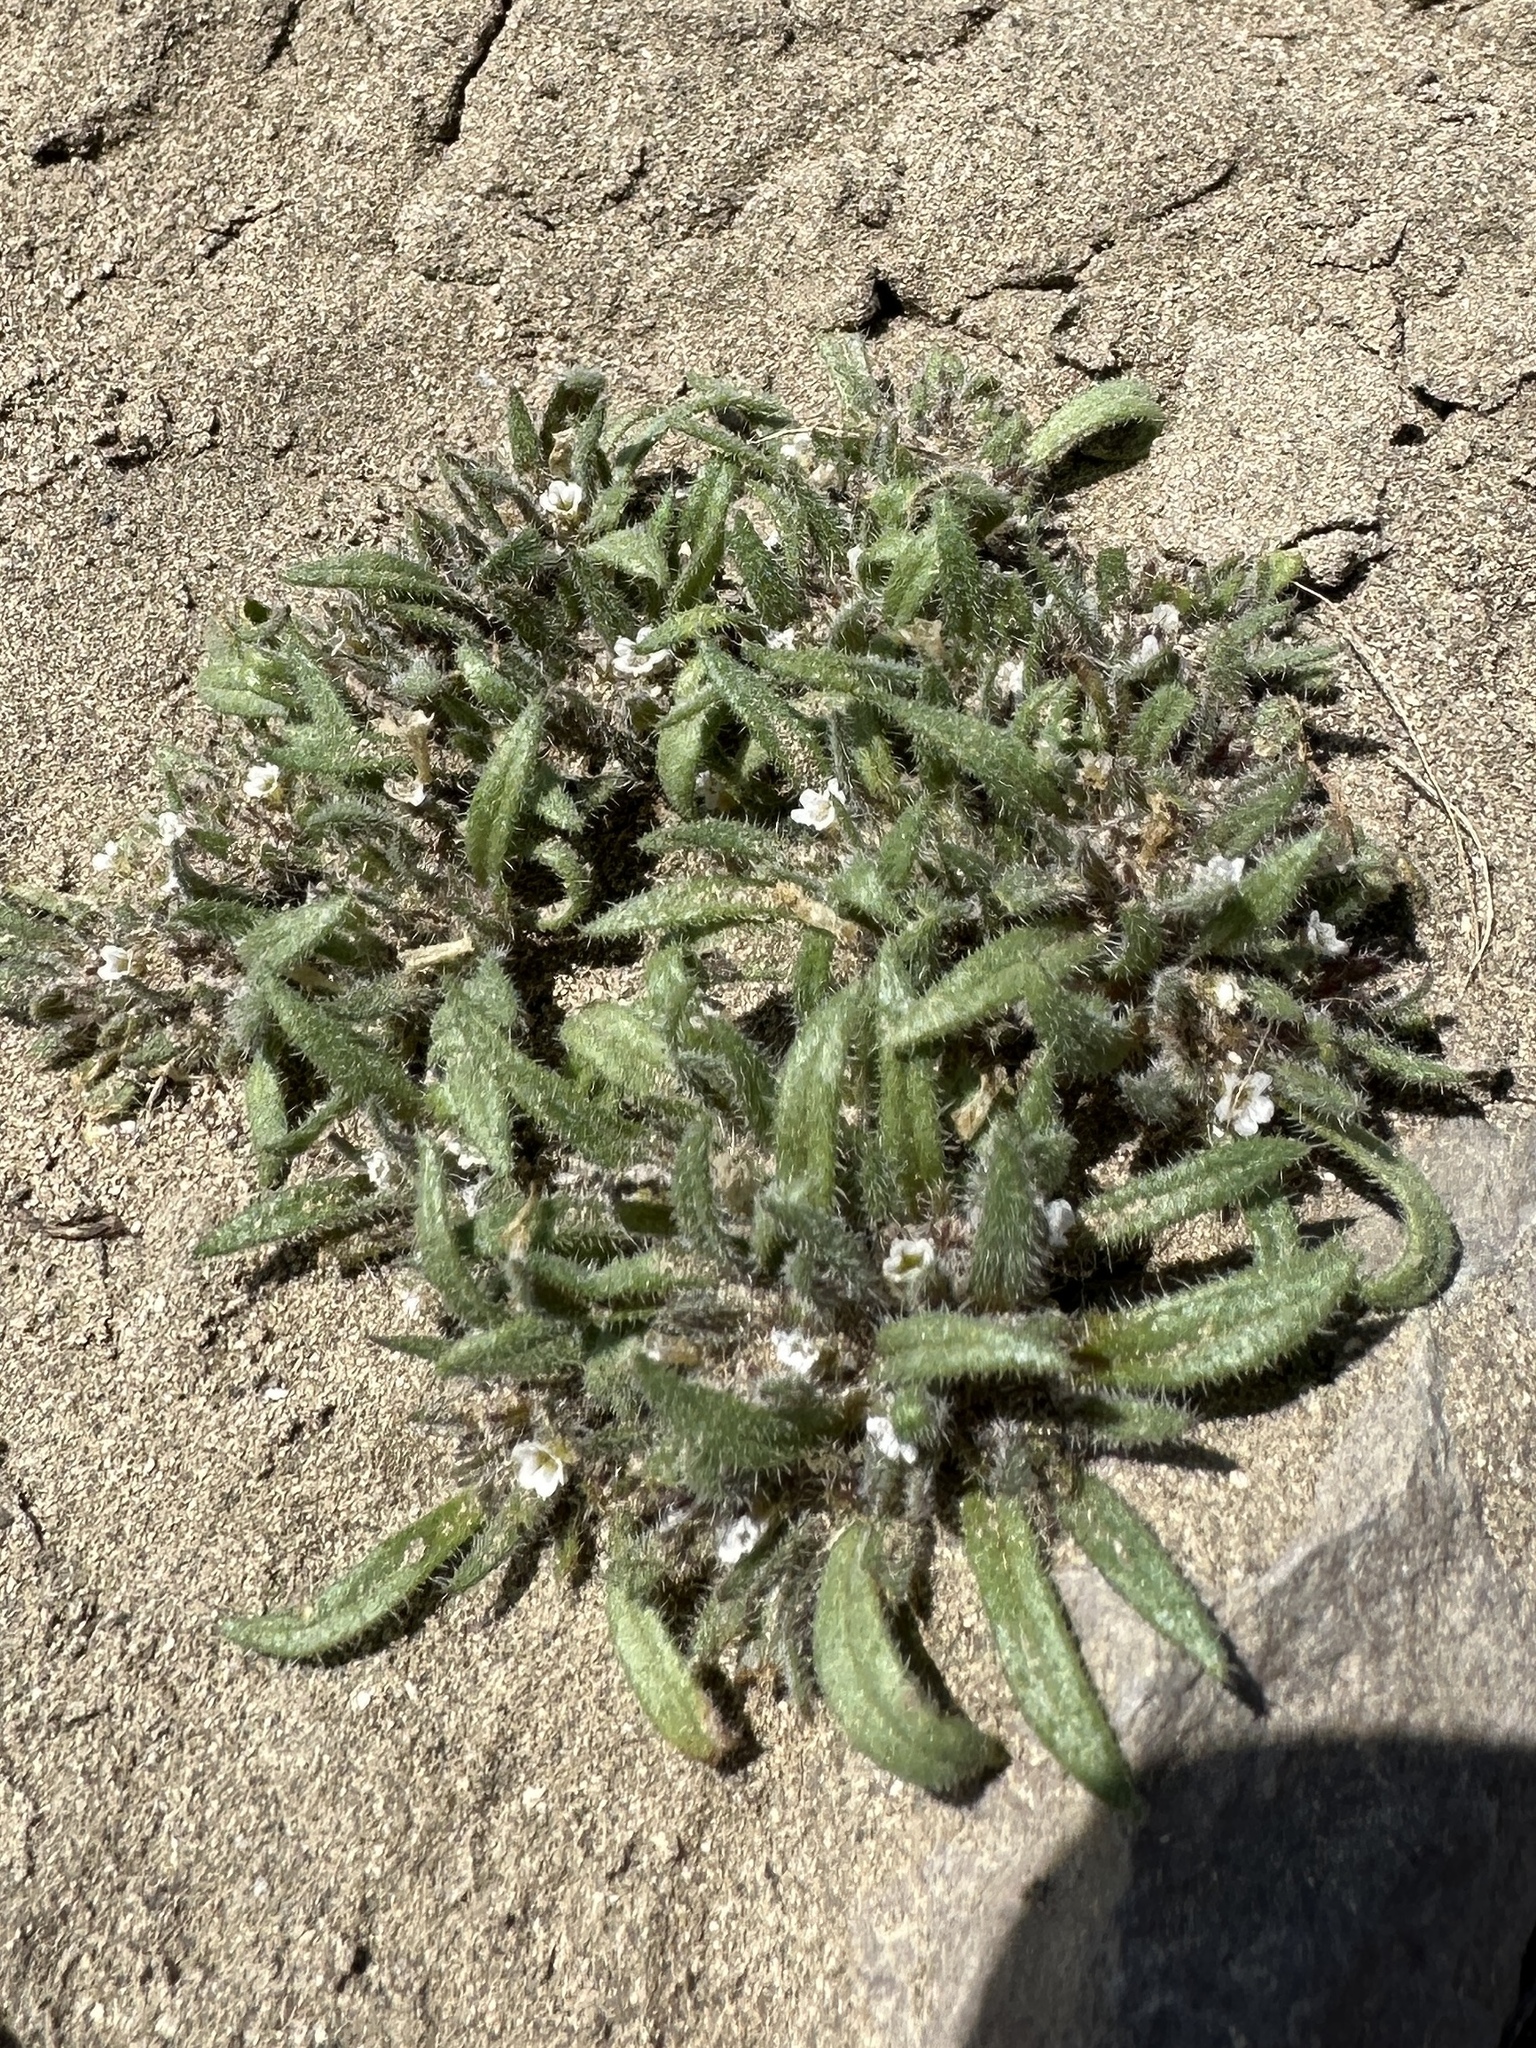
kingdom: Plantae
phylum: Tracheophyta
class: Magnoliopsida
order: Boraginales
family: Namaceae
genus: Nama
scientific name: Nama densa
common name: Leafy nama
